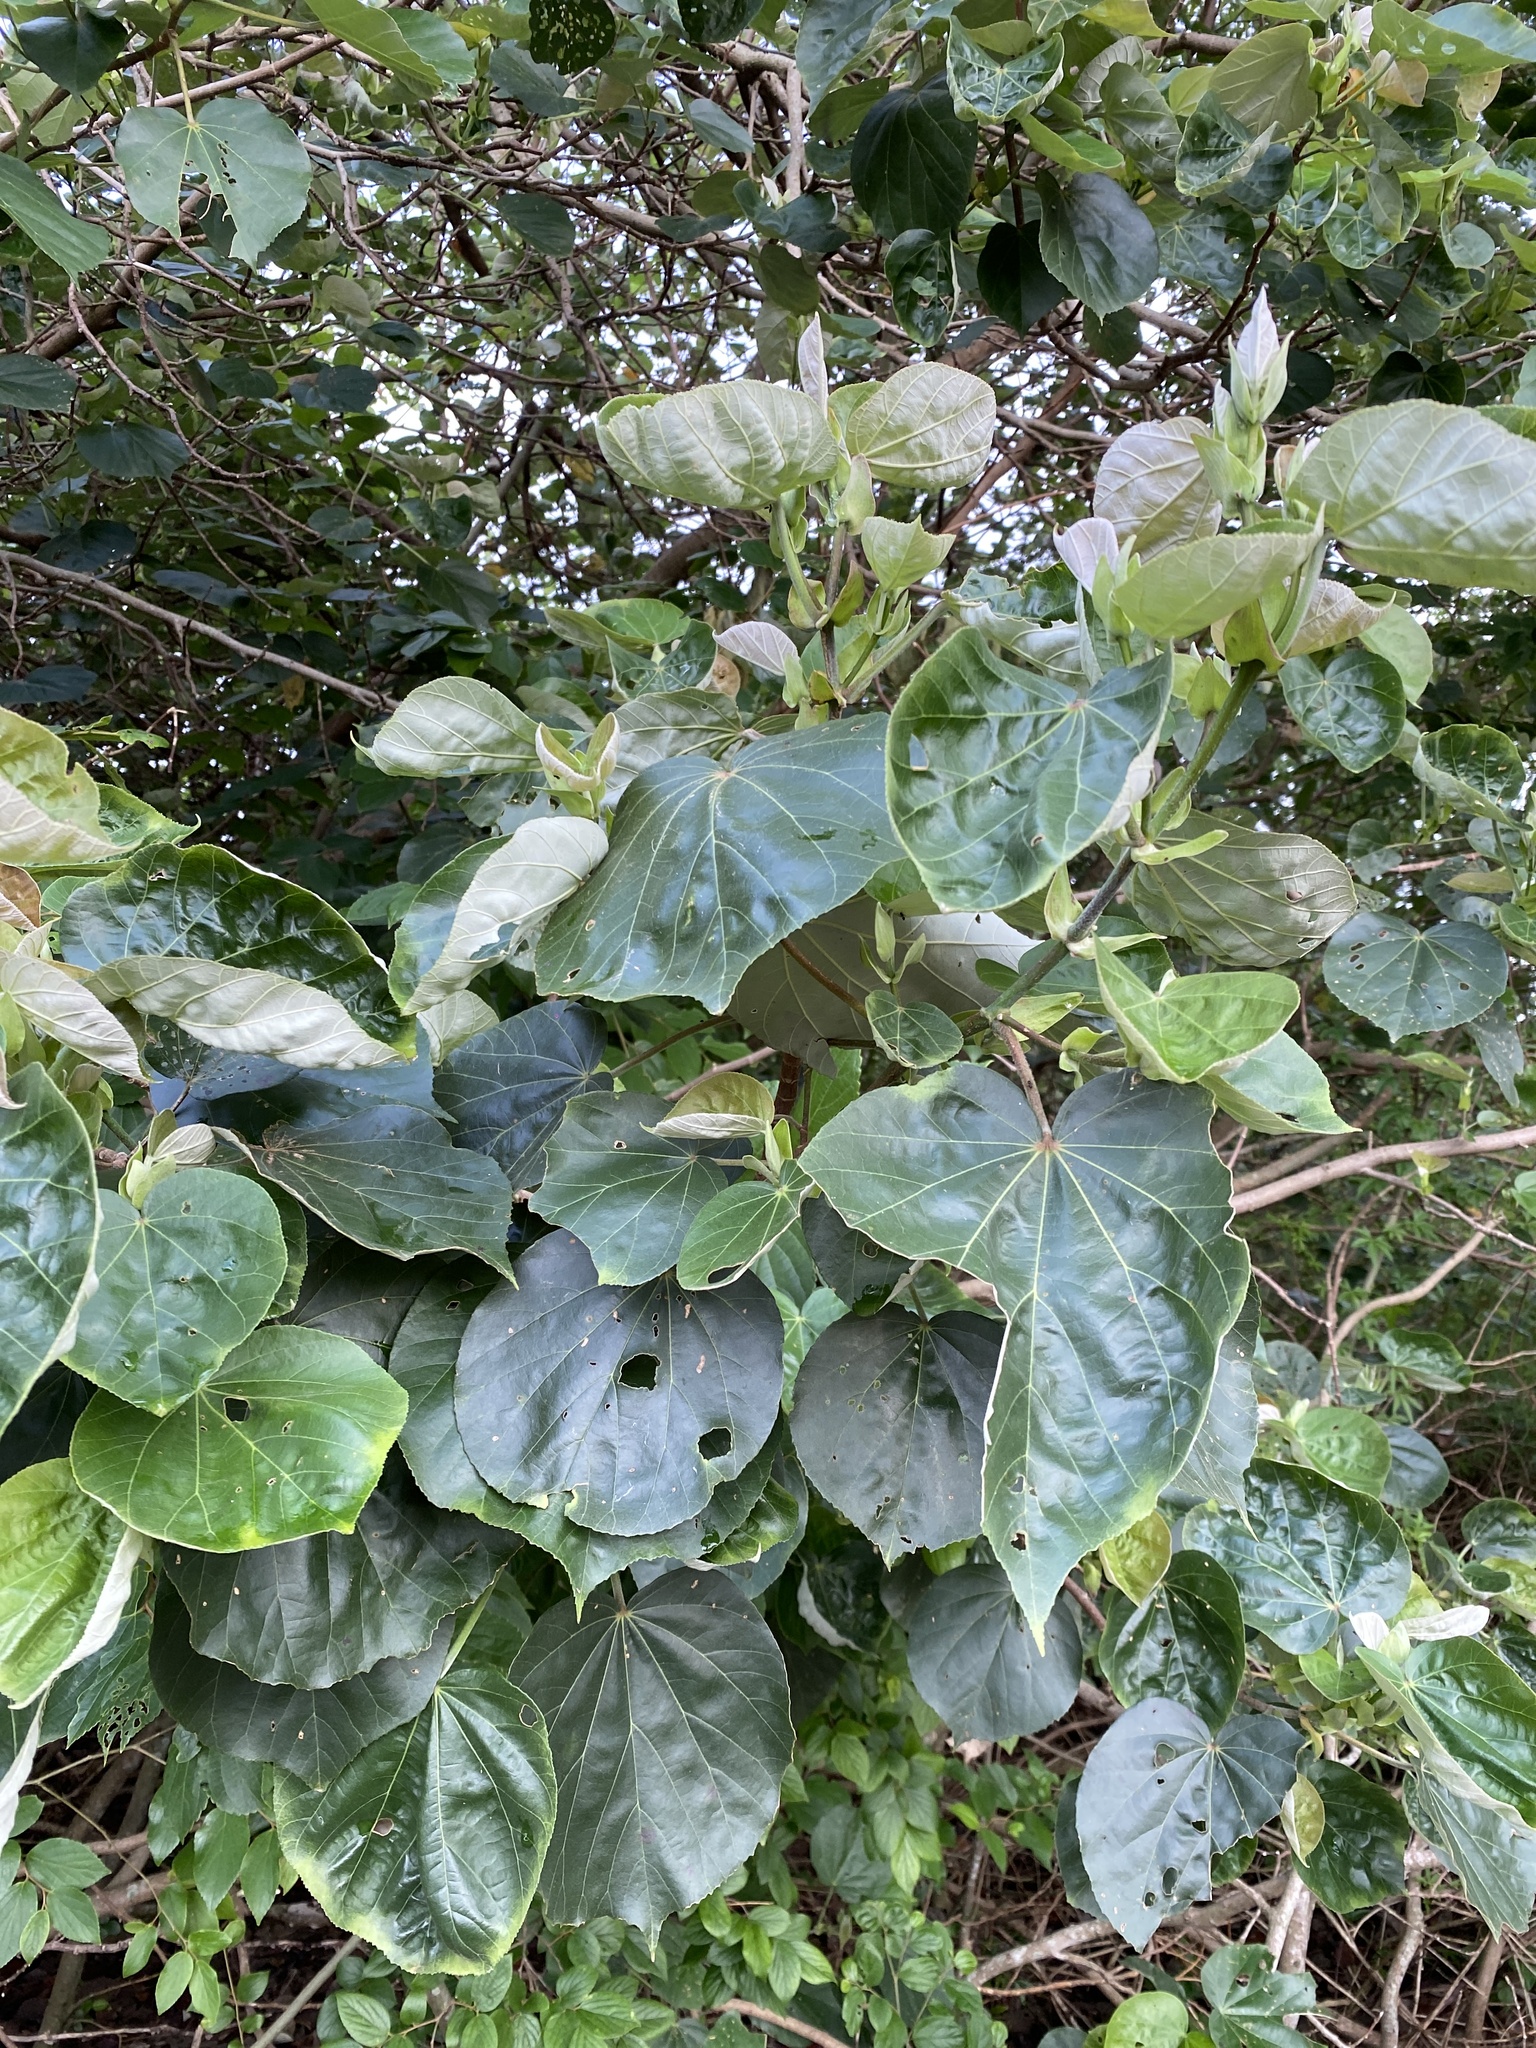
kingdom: Plantae
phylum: Tracheophyta
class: Magnoliopsida
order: Malvales
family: Malvaceae
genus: Talipariti
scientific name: Talipariti tiliaceum
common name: Sea hibiscus
